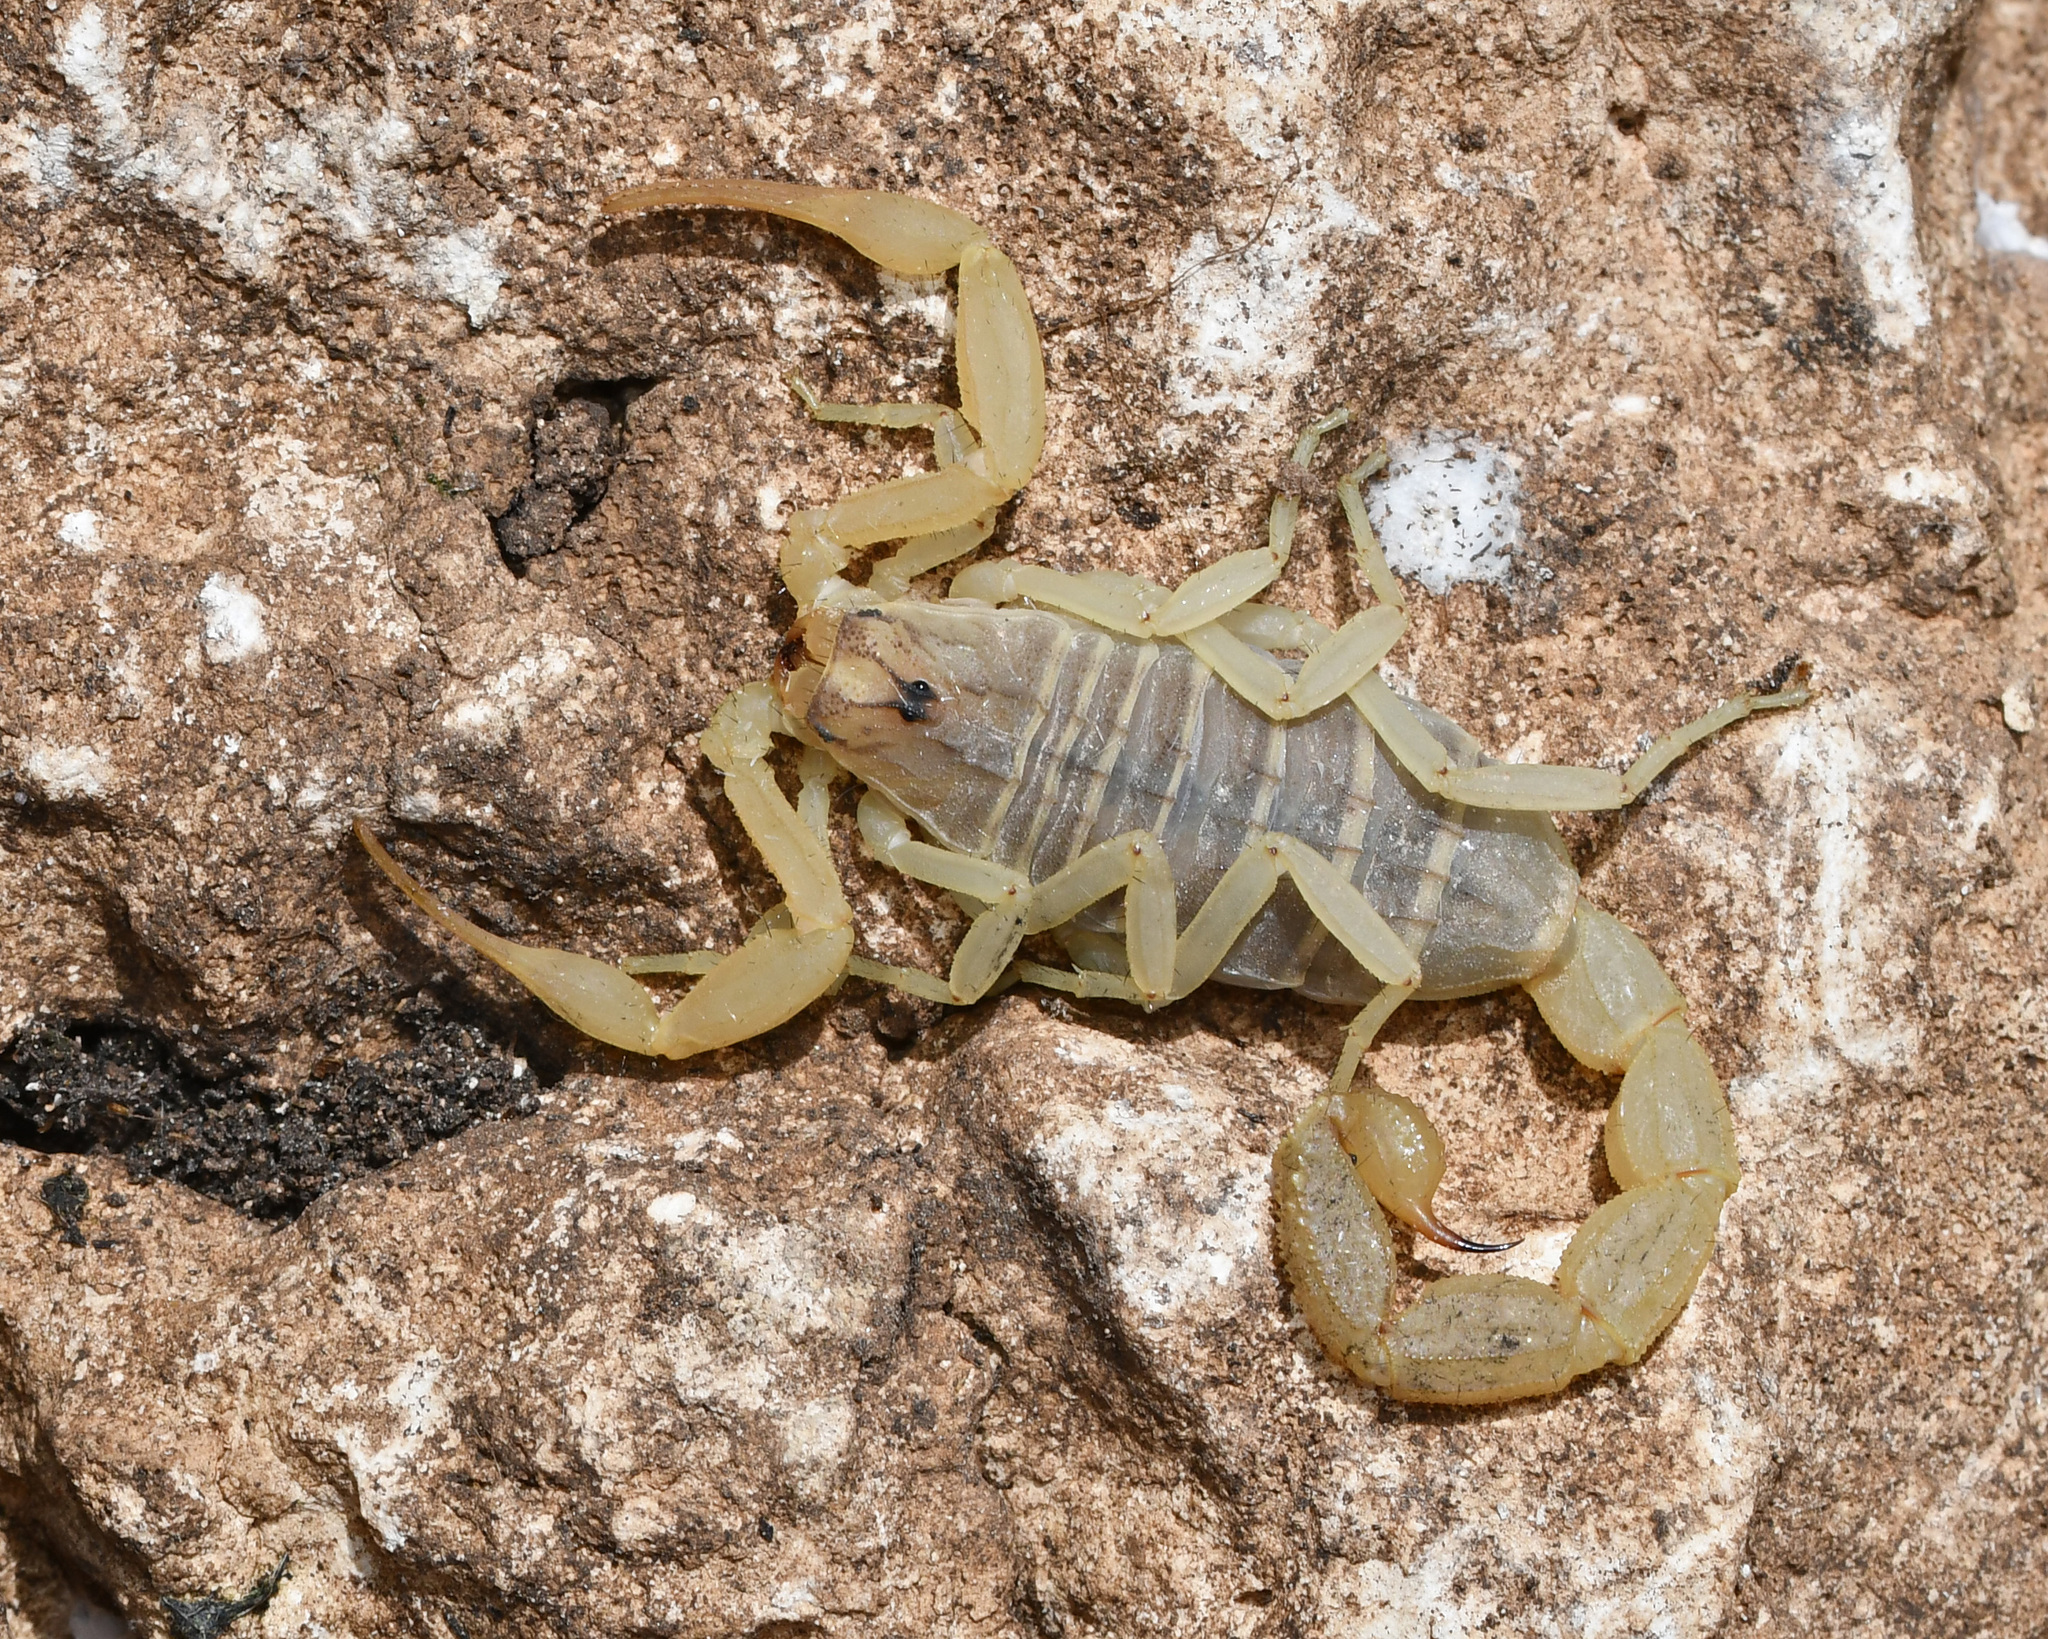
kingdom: Animalia
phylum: Arthropoda
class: Arachnida
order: Scorpiones
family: Buthidae
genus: Aegaeobuthus
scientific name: Aegaeobuthus cyprius
